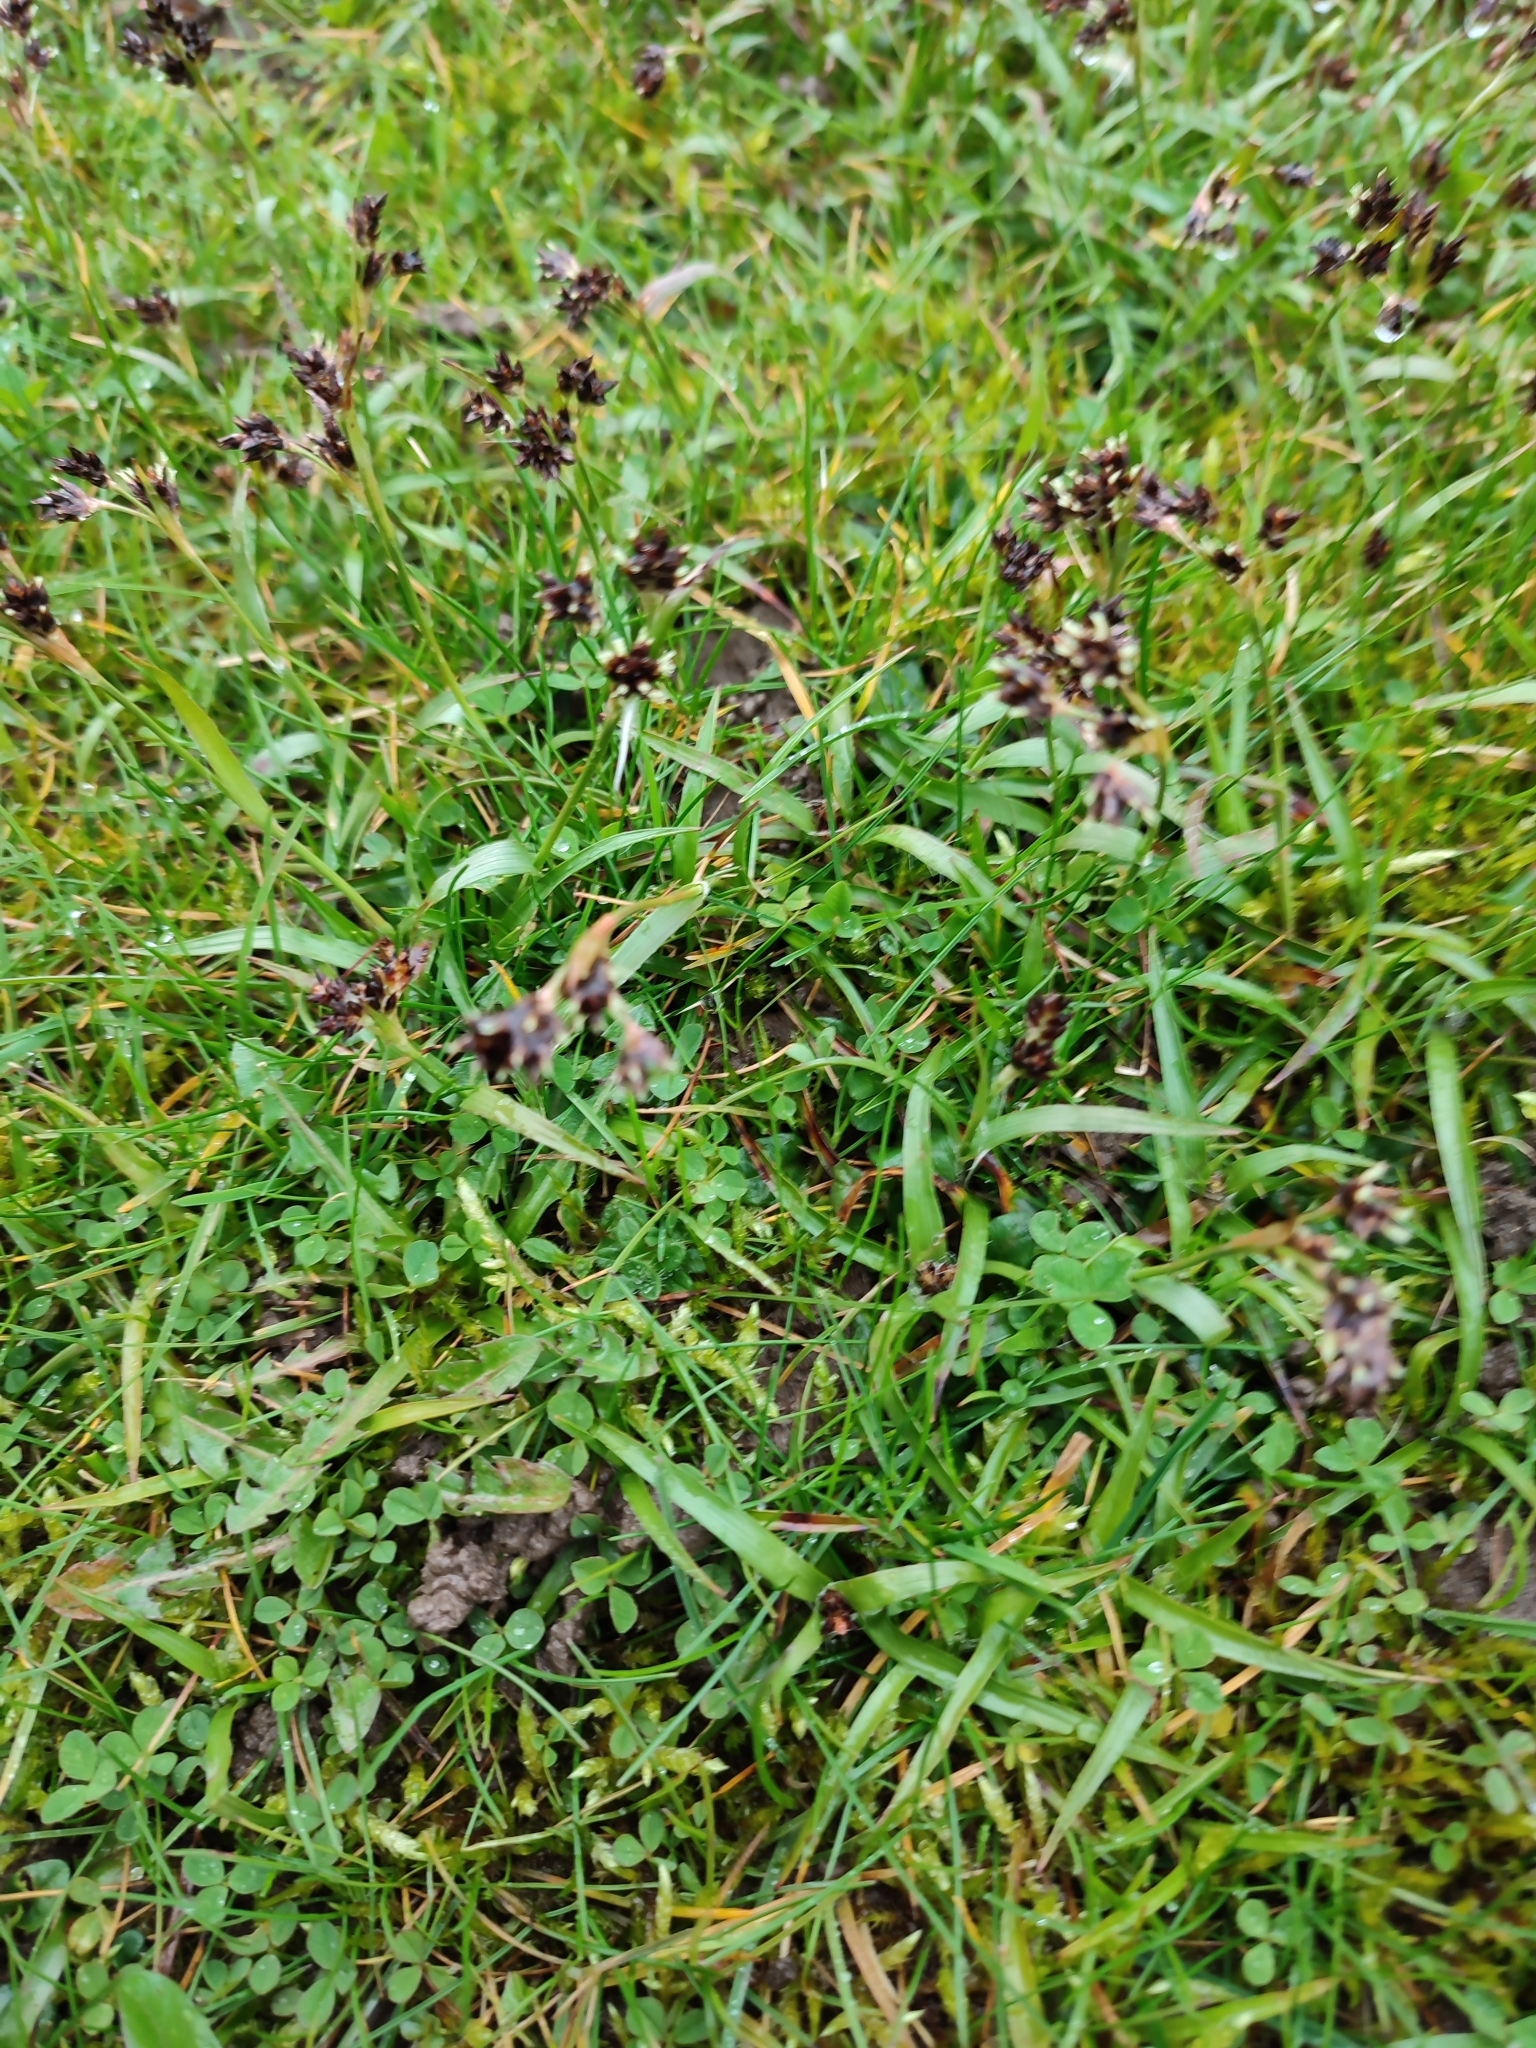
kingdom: Plantae
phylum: Tracheophyta
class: Liliopsida
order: Poales
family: Juncaceae
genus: Luzula
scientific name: Luzula campestris
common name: Field wood-rush
